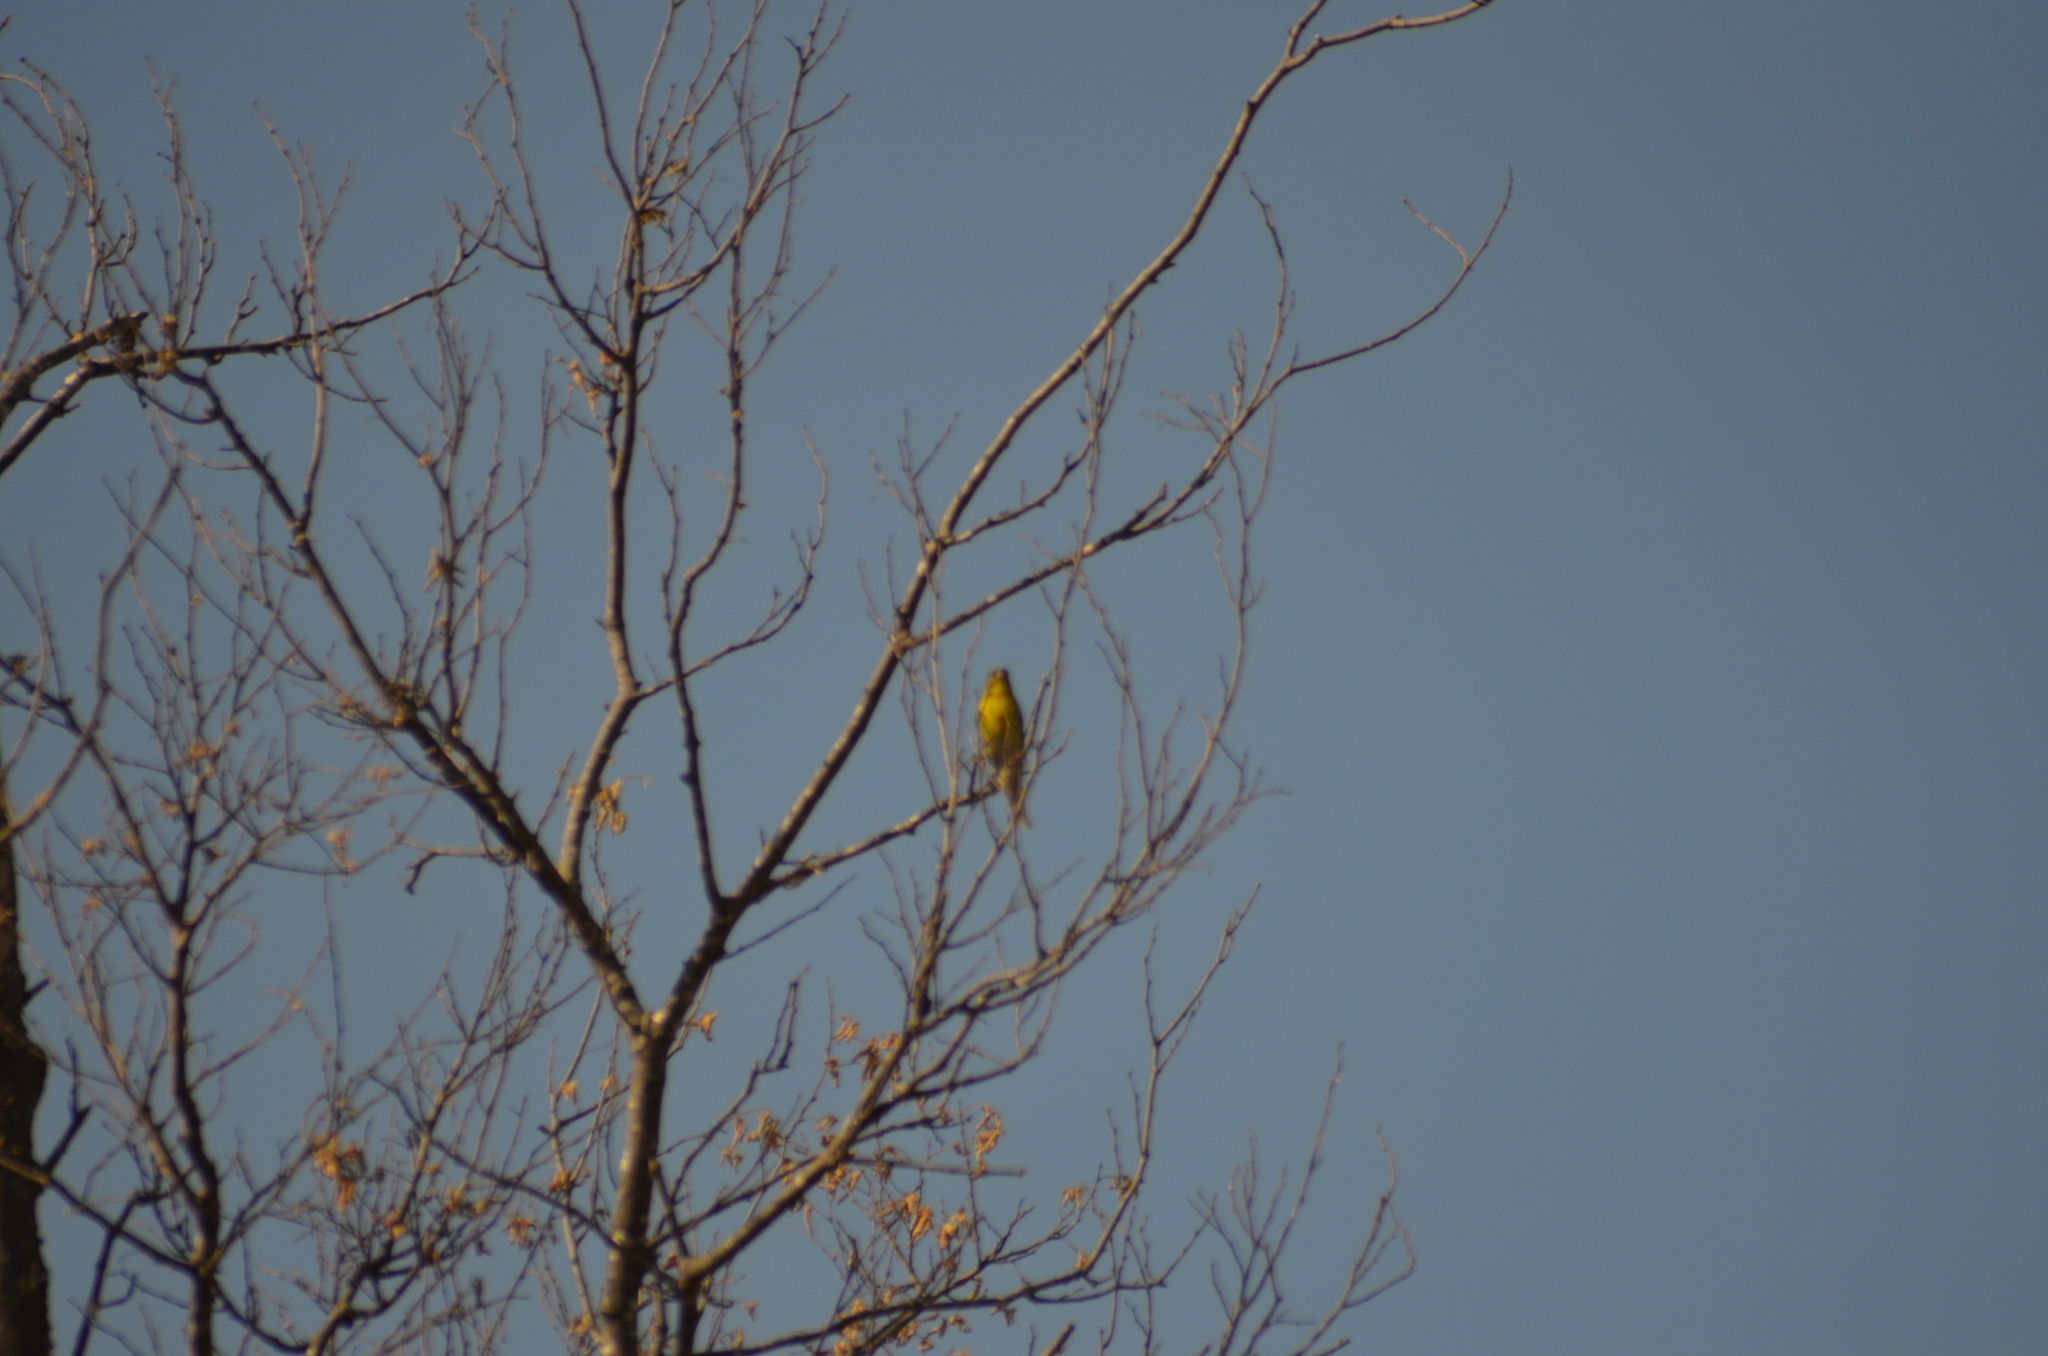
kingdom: Animalia
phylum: Chordata
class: Aves
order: Passeriformes
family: Fringillidae
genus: Serinus
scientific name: Serinus serinus
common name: European serin
